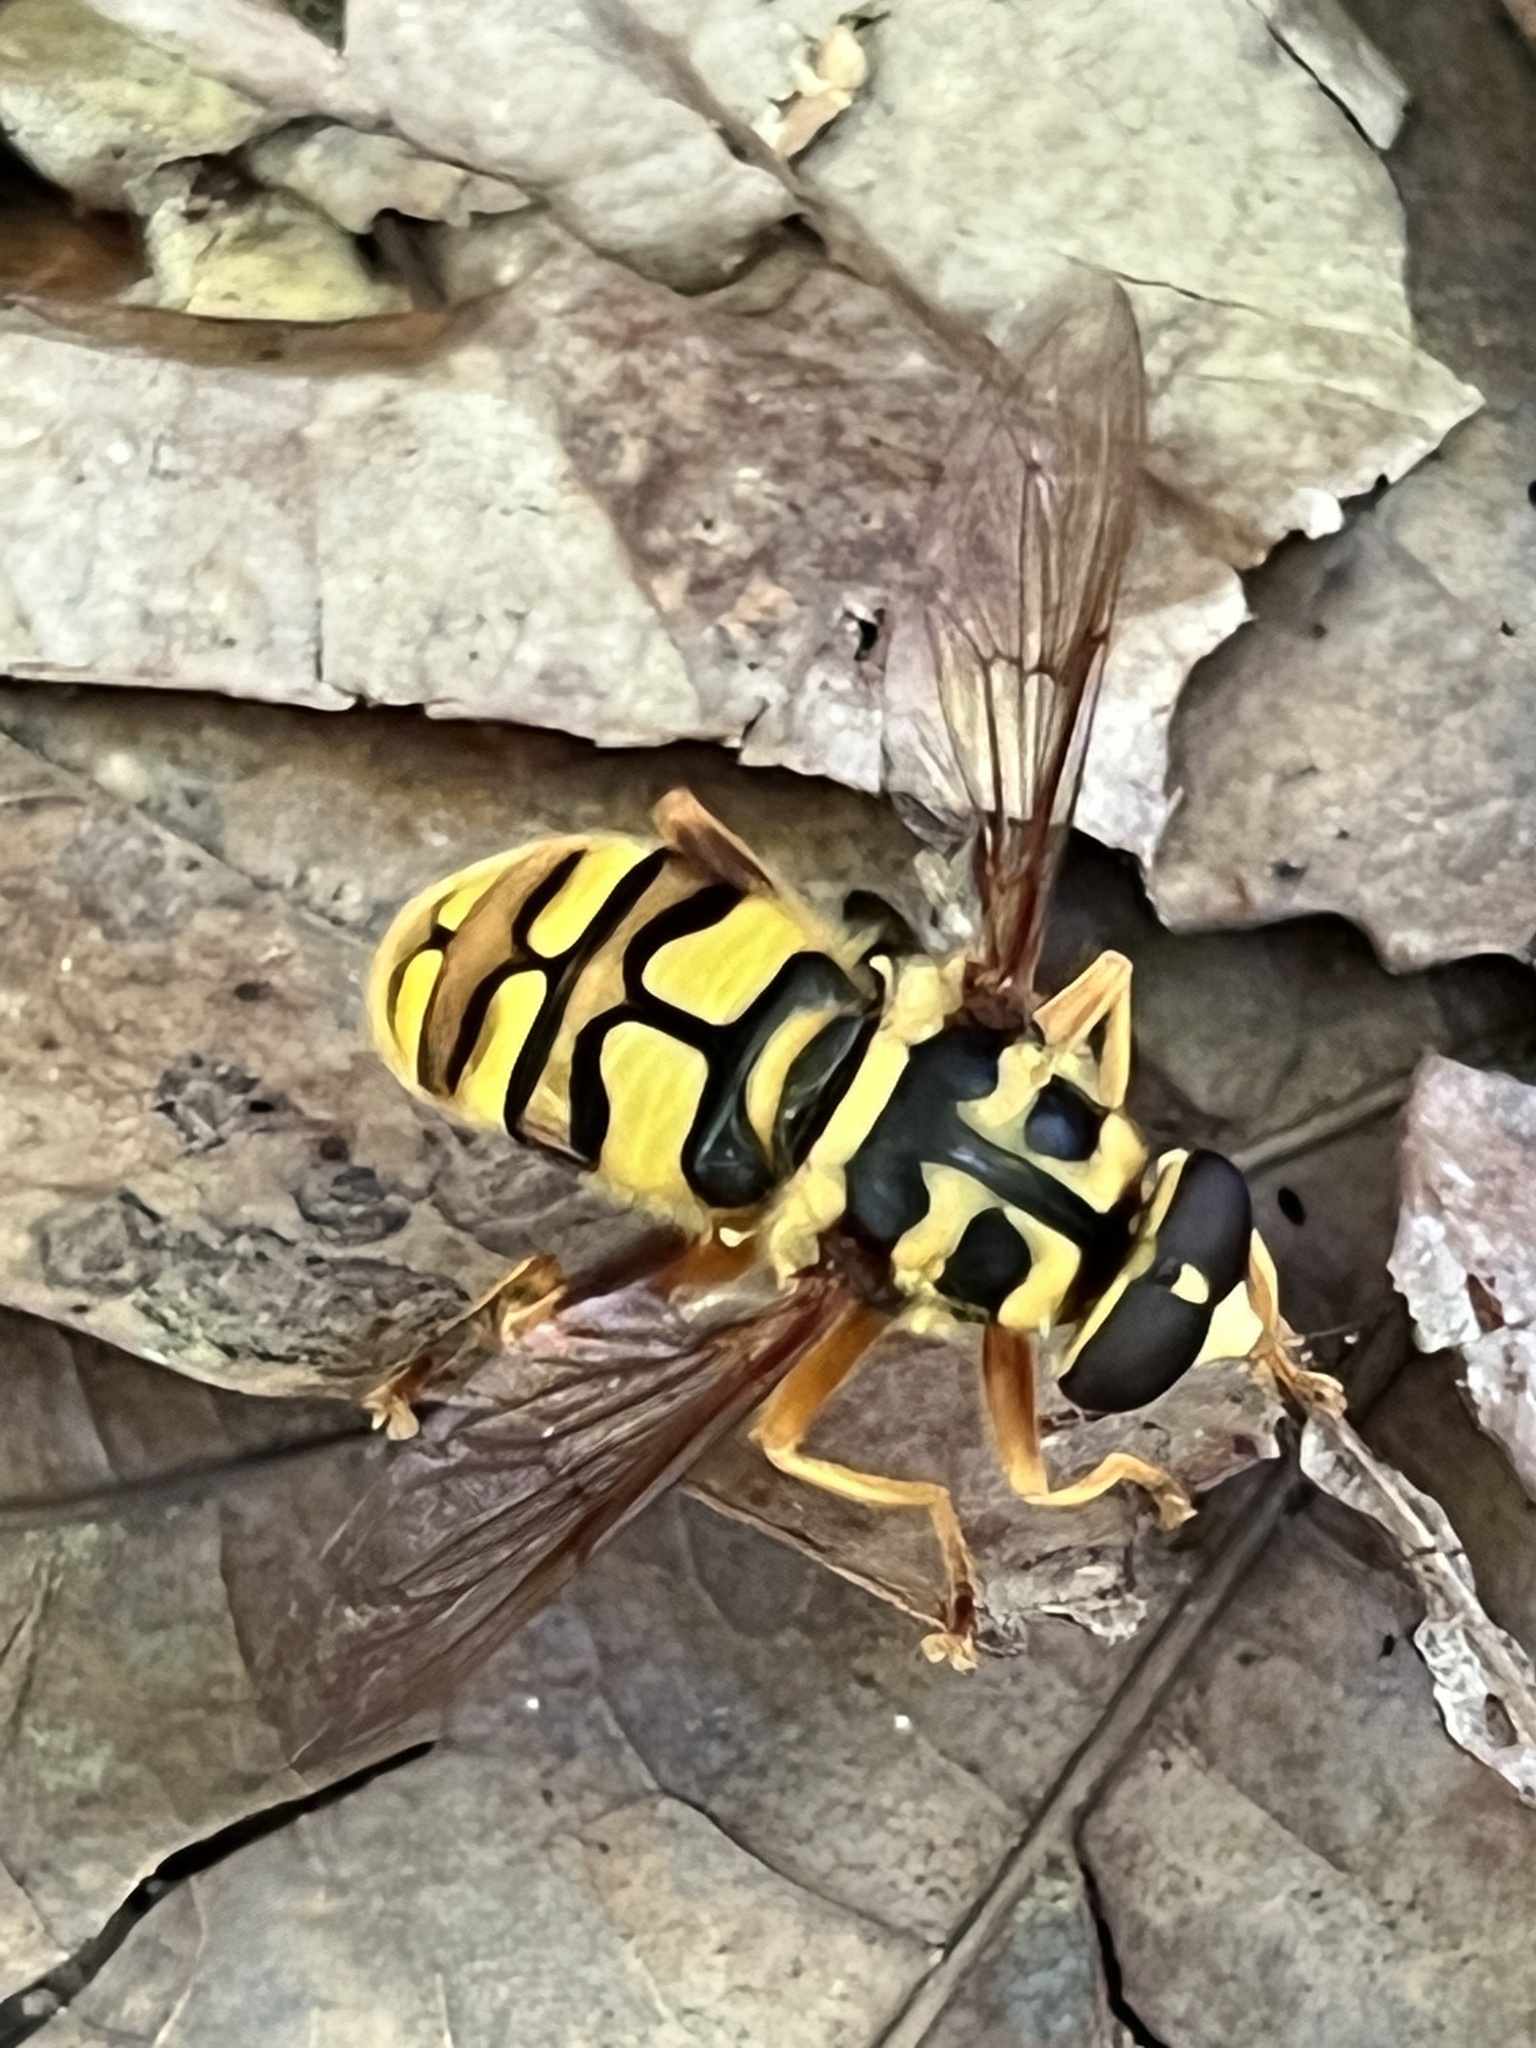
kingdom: Animalia
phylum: Arthropoda
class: Insecta
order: Diptera
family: Syrphidae
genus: Milesia
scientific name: Milesia virginiensis
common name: Virginia giant
